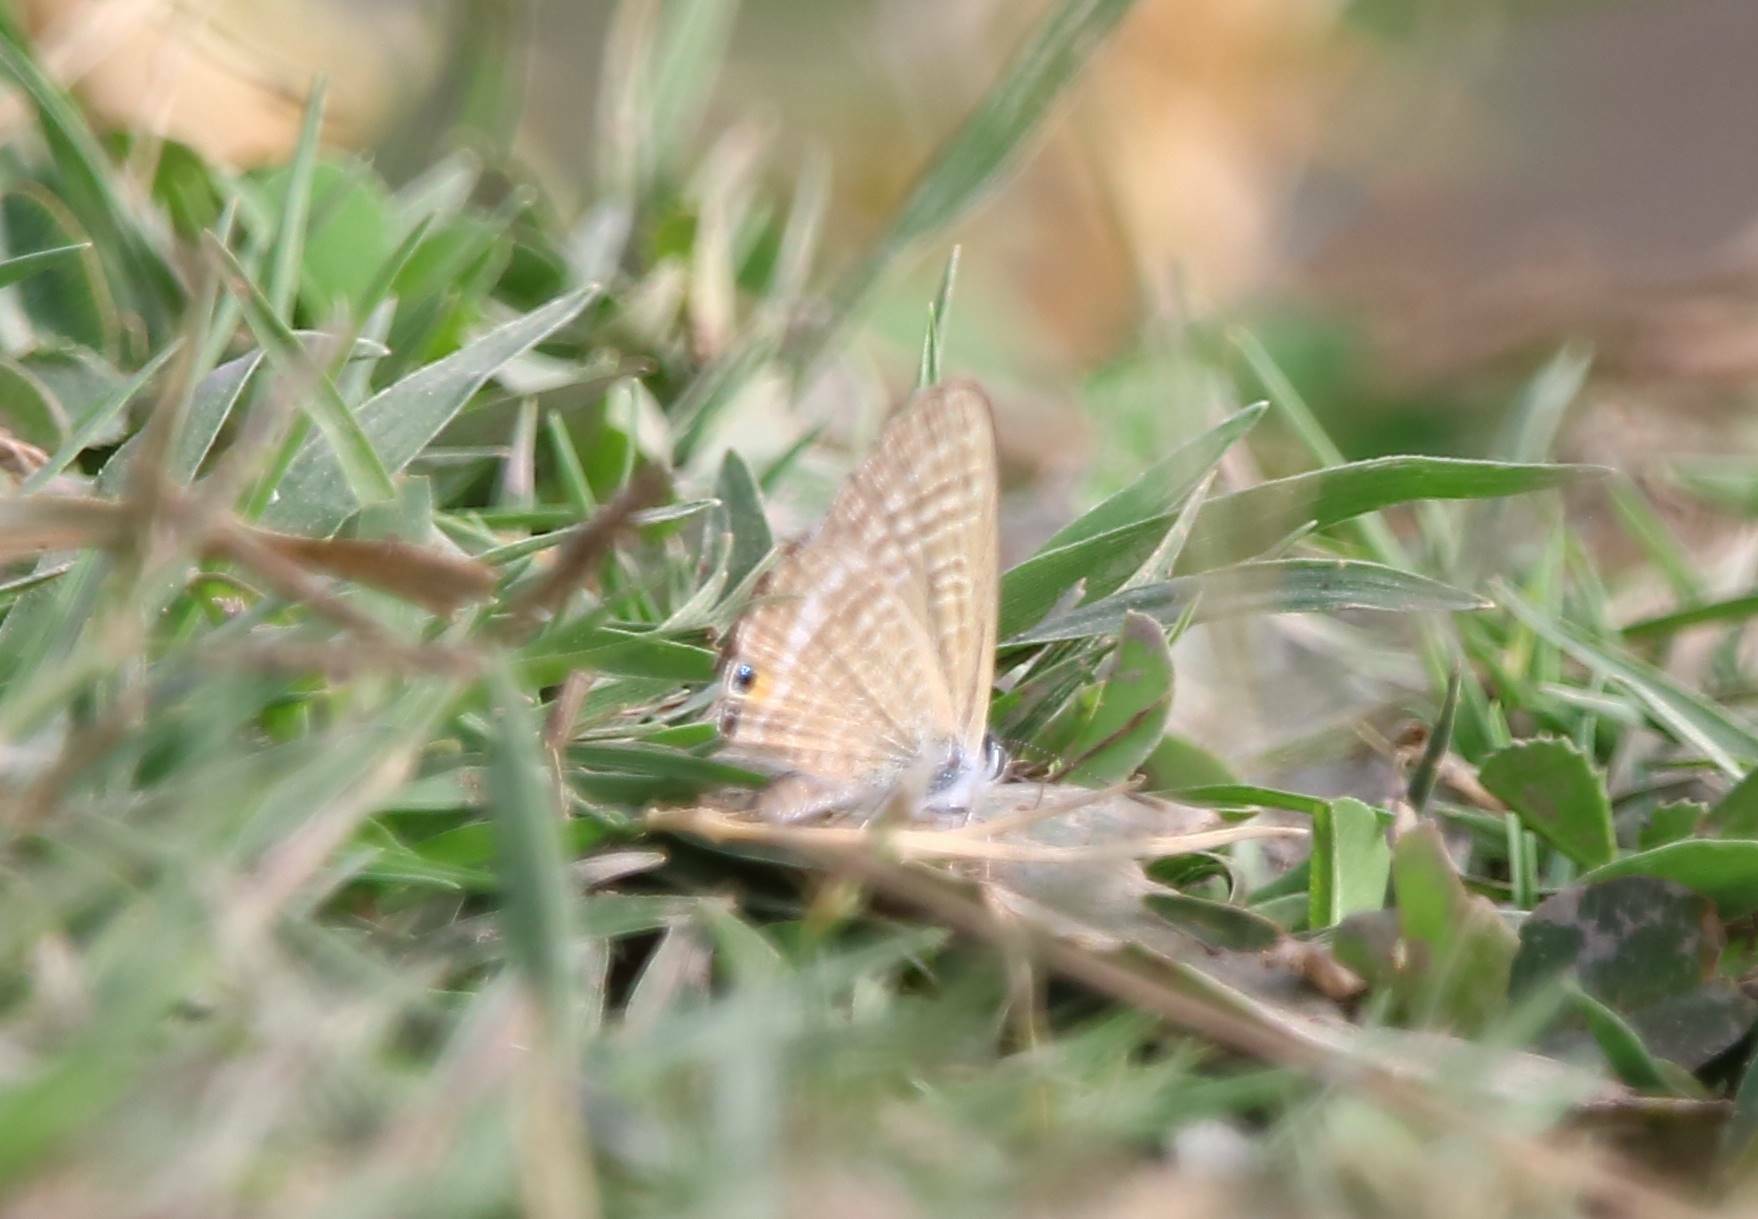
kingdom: Animalia
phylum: Arthropoda
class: Insecta
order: Lepidoptera
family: Lycaenidae
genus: Lampides
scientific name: Lampides boeticus
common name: Long-tailed blue
